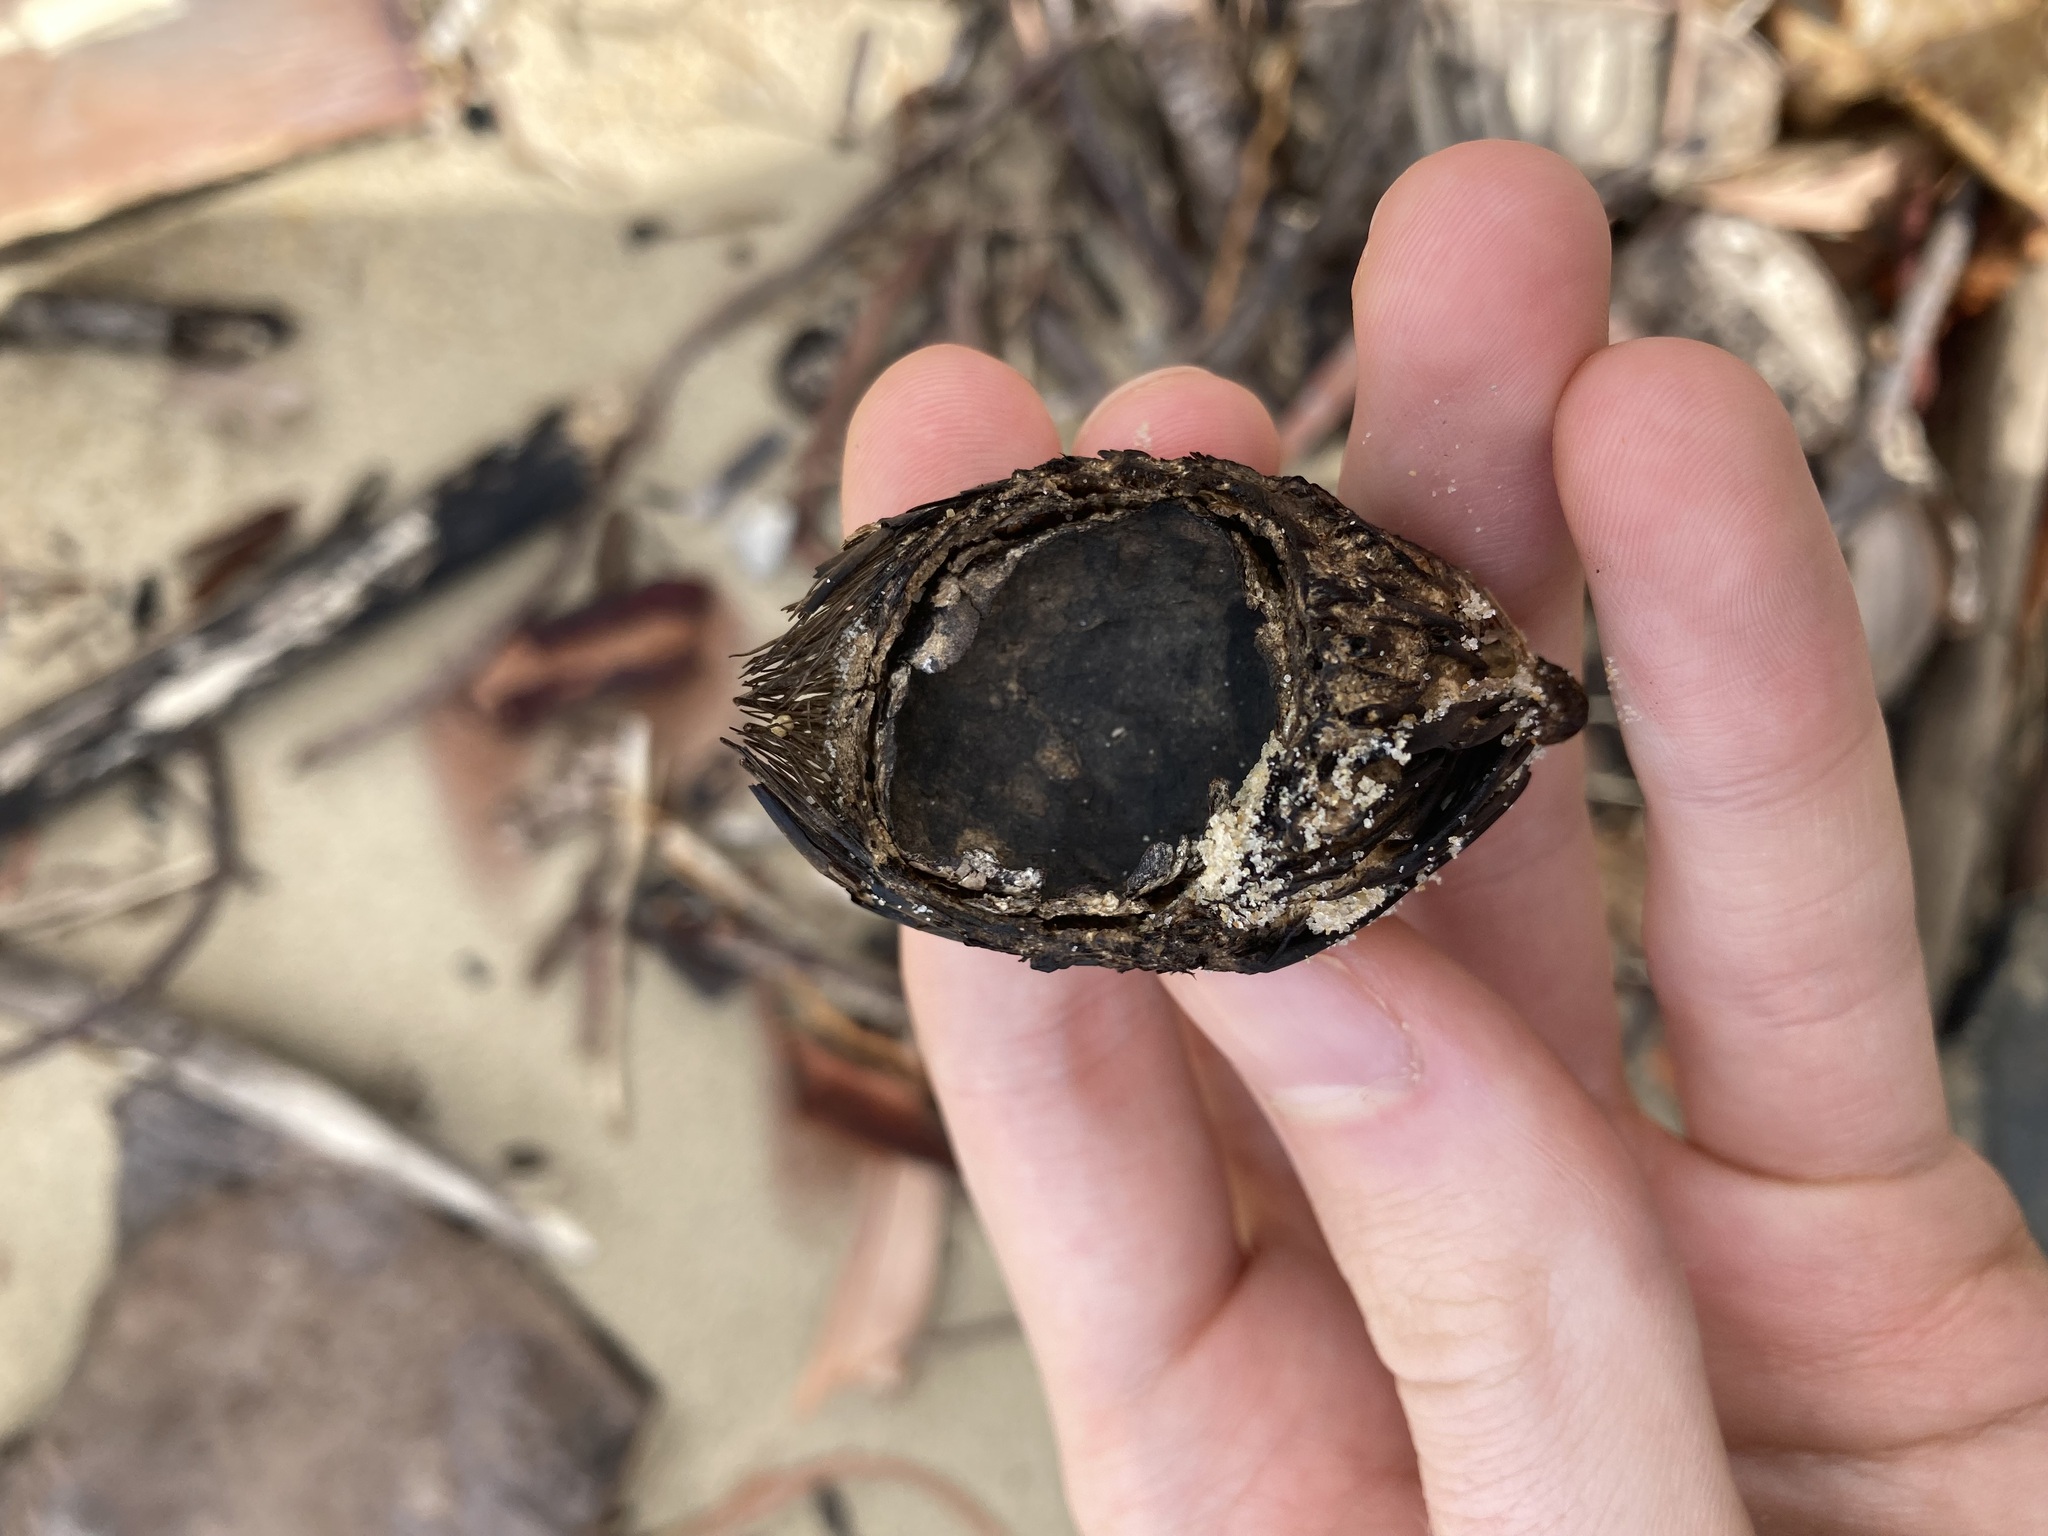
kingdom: Plantae
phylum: Tracheophyta
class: Liliopsida
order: Arecales
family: Arecaceae
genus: Wodyetia
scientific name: Wodyetia bifurcata
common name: Foxtail palm
